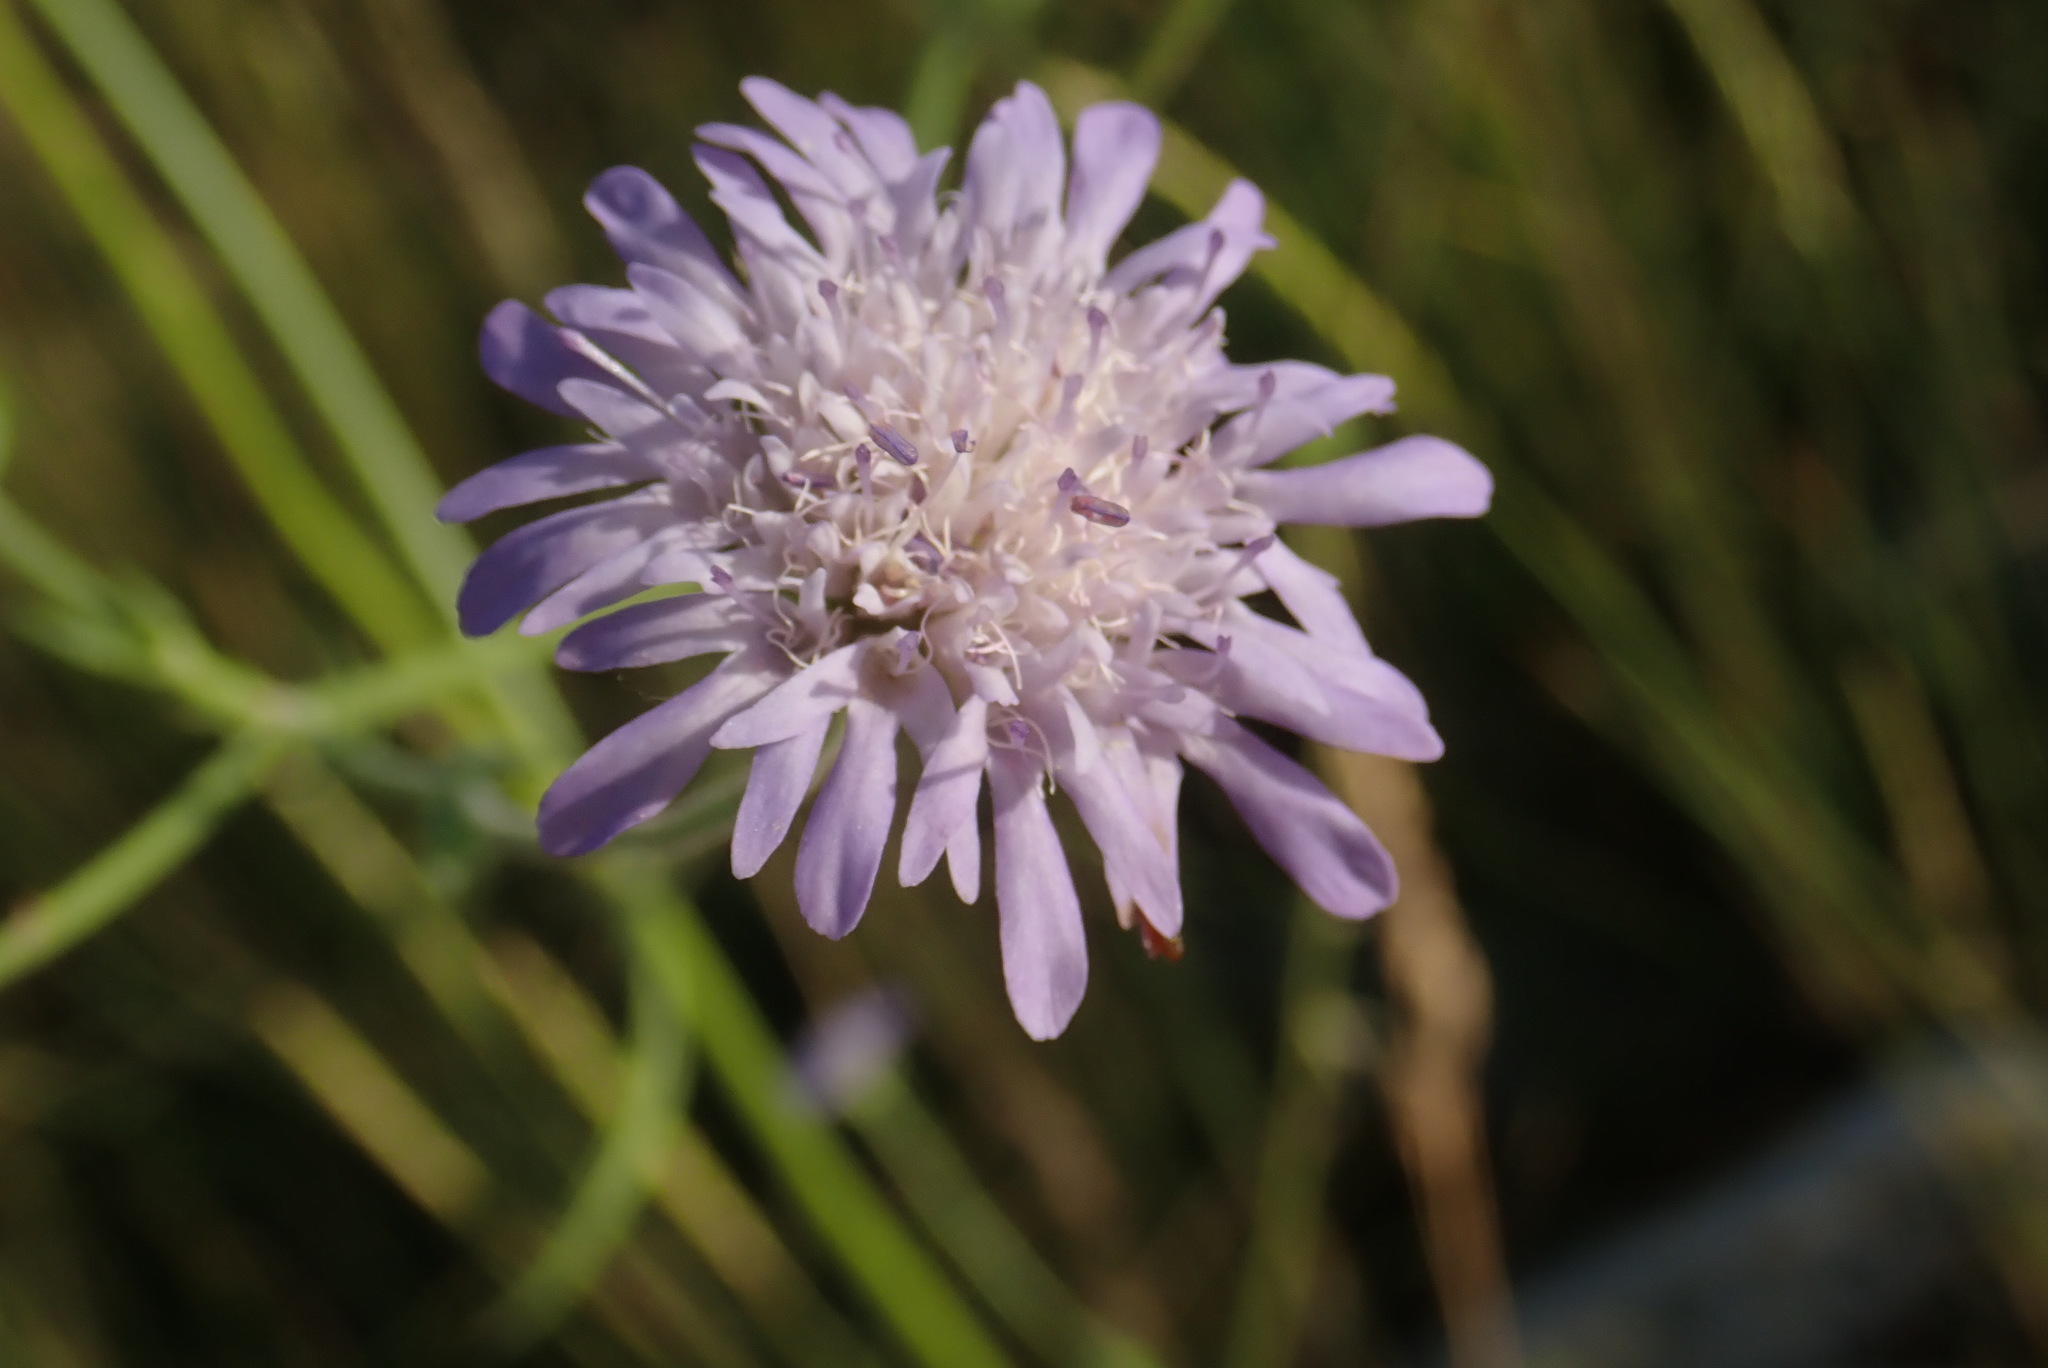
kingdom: Plantae
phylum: Tracheophyta
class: Magnoliopsida
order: Dipsacales
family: Caprifoliaceae
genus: Scabiosa
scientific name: Scabiosa triandra
